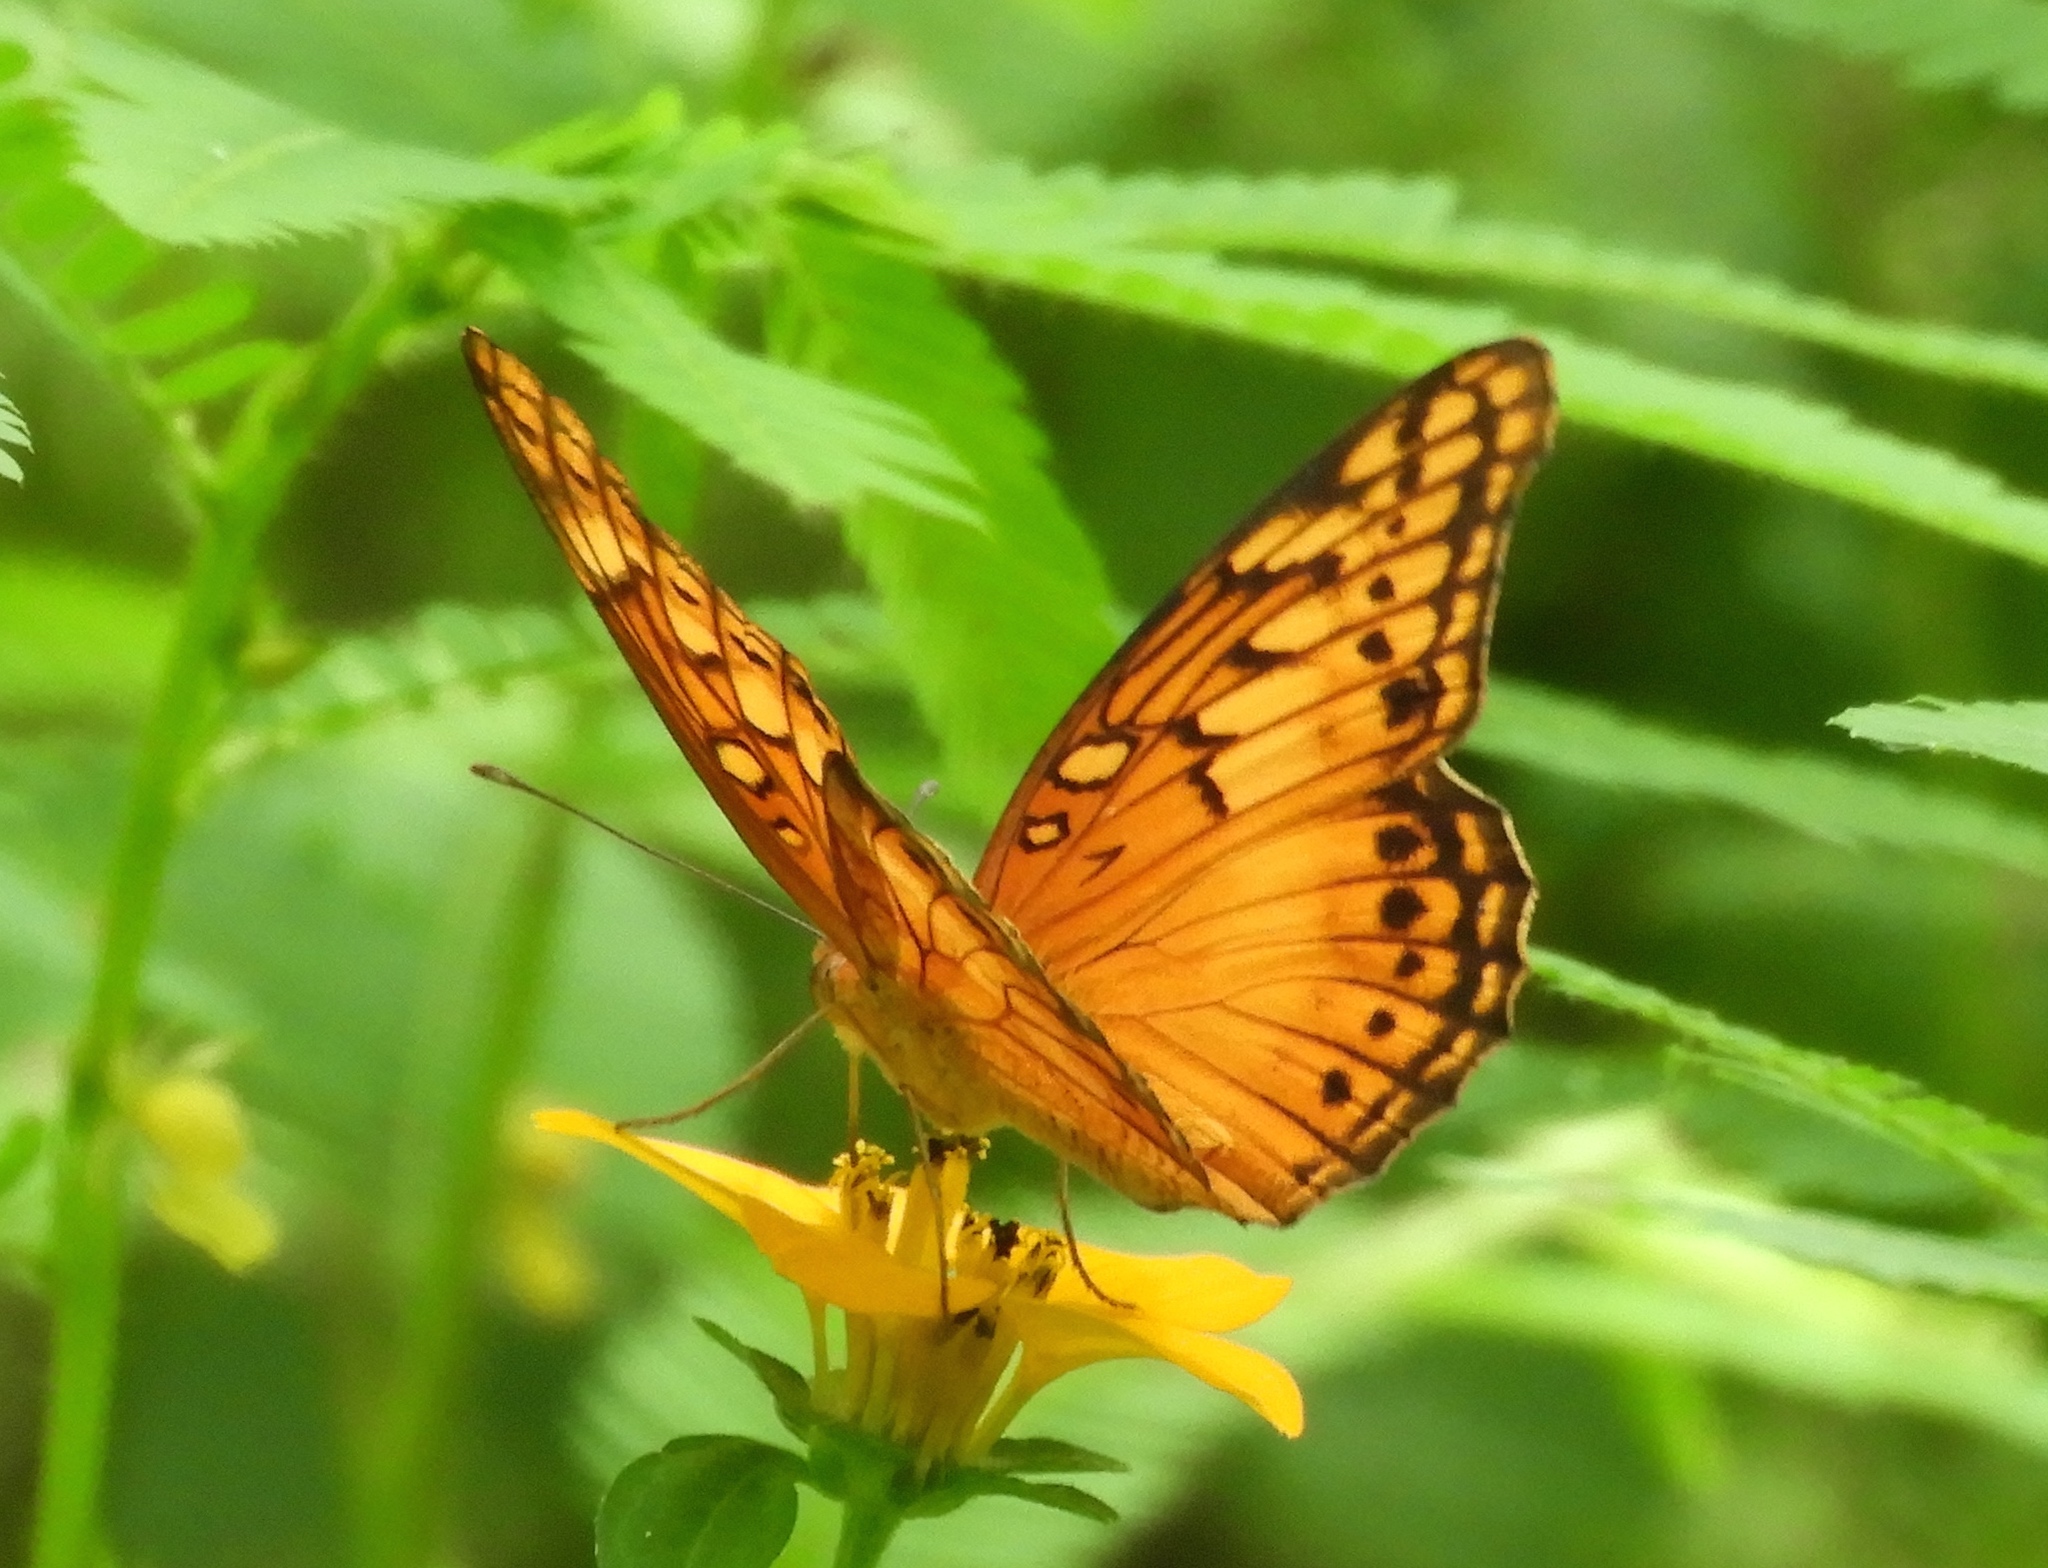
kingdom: Animalia
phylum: Arthropoda
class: Insecta
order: Lepidoptera
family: Nymphalidae
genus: Euptoieta
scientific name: Euptoieta hegesia
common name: Mexican fritillary
